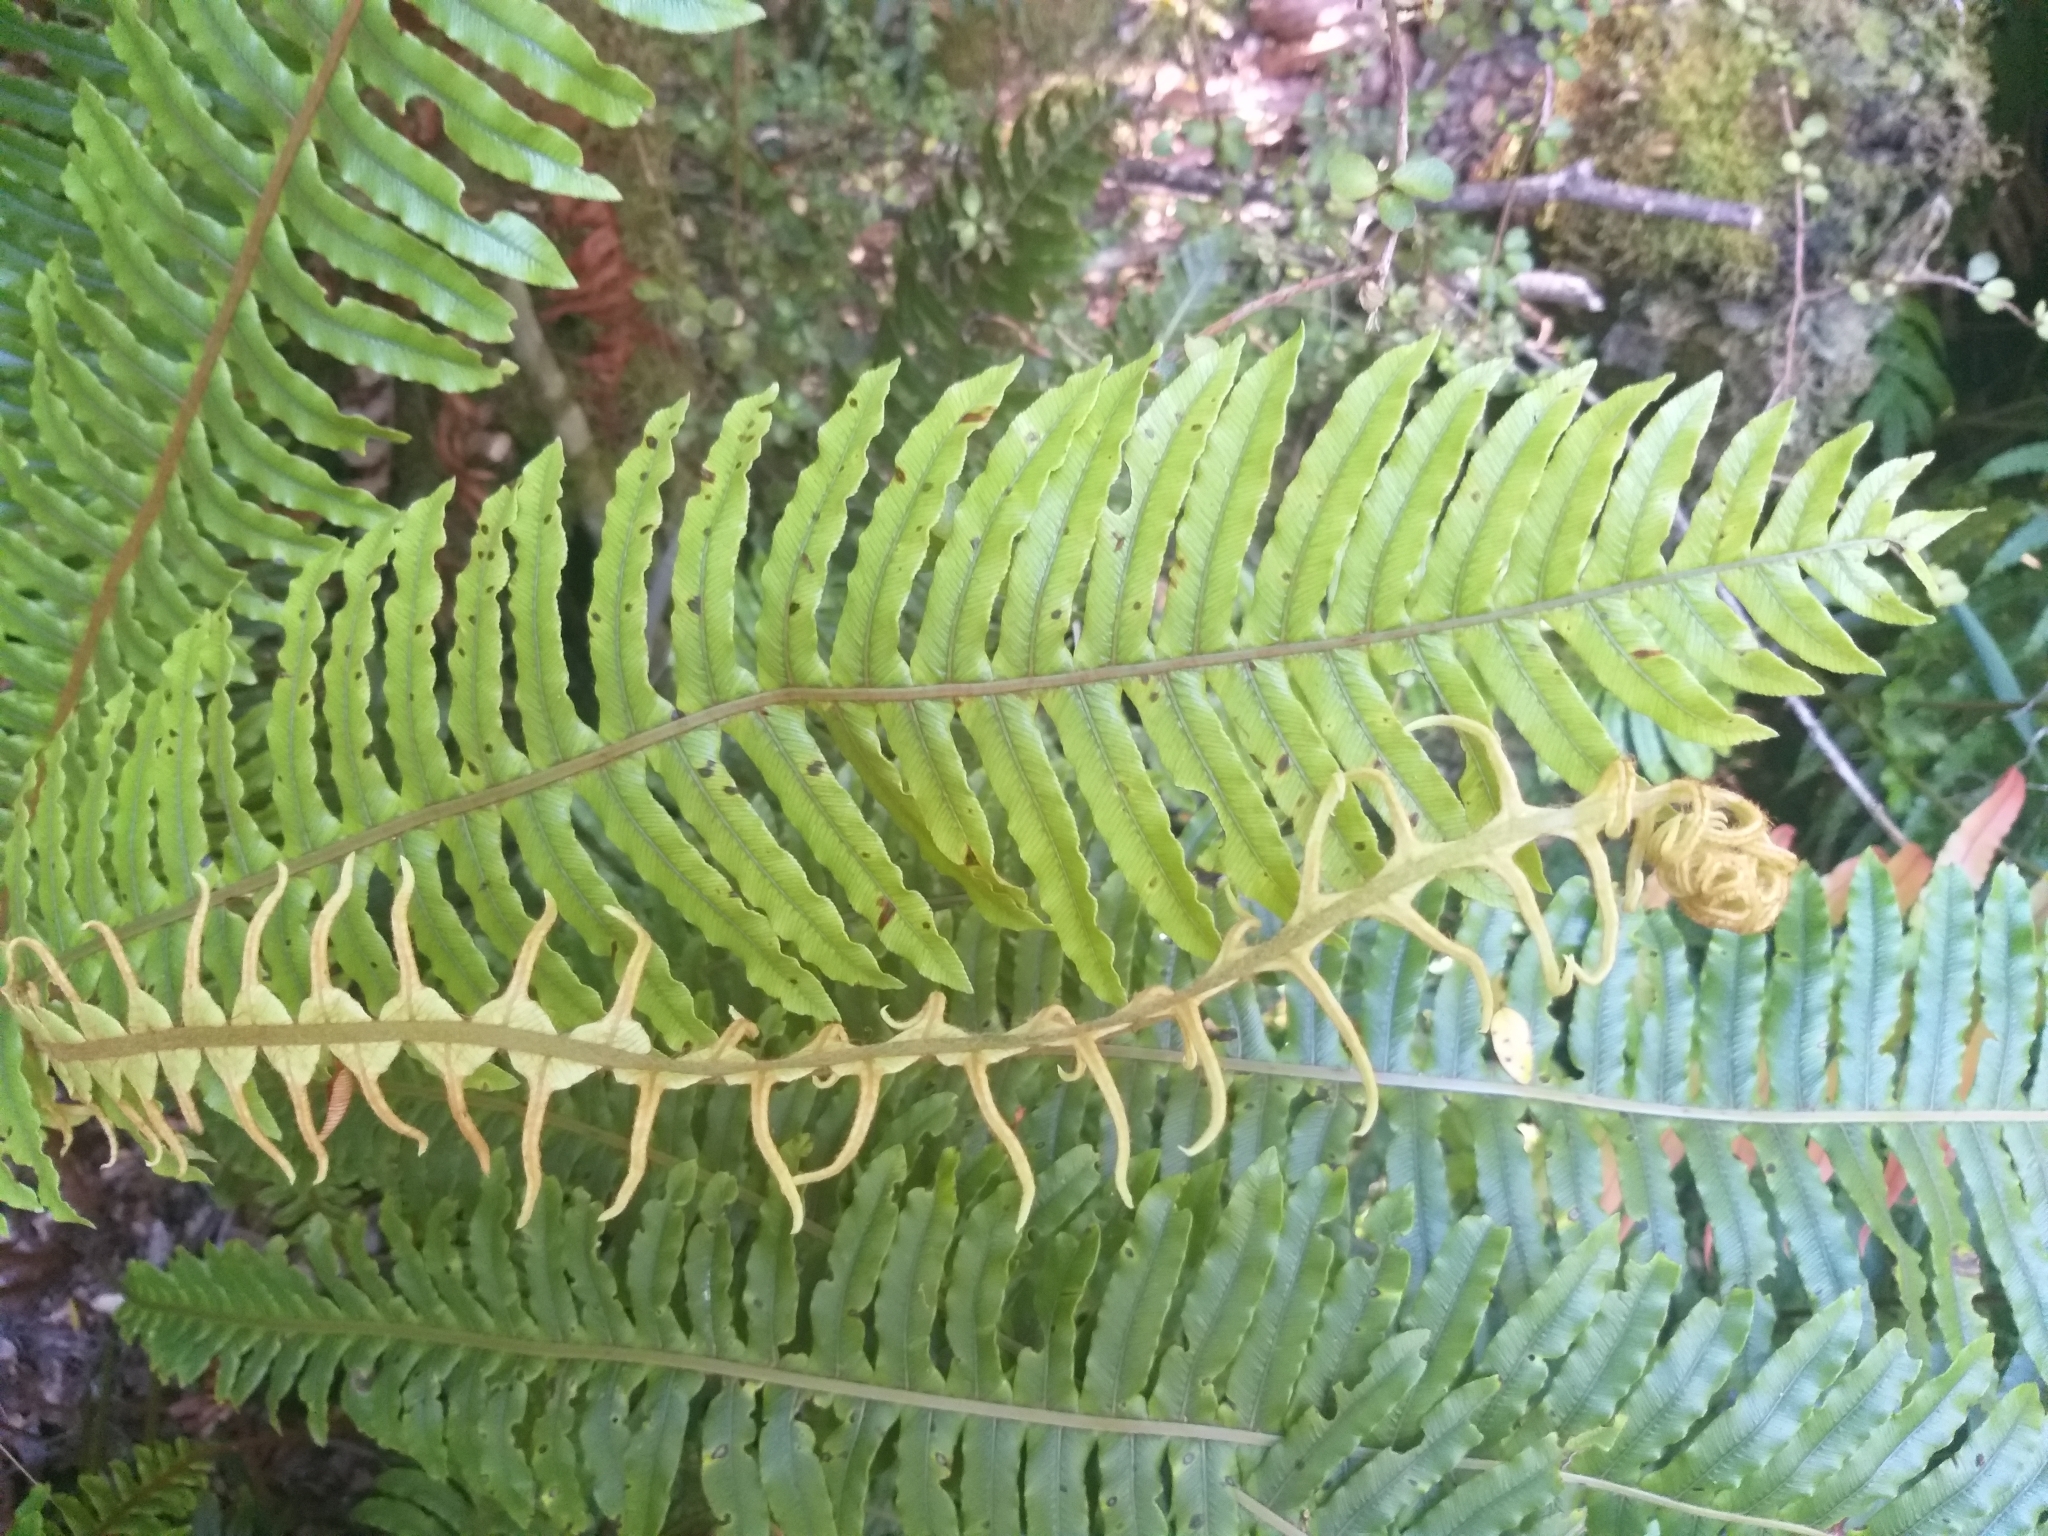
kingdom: Plantae
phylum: Tracheophyta
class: Polypodiopsida
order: Polypodiales
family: Blechnaceae
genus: Lomaria
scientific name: Lomaria discolor
